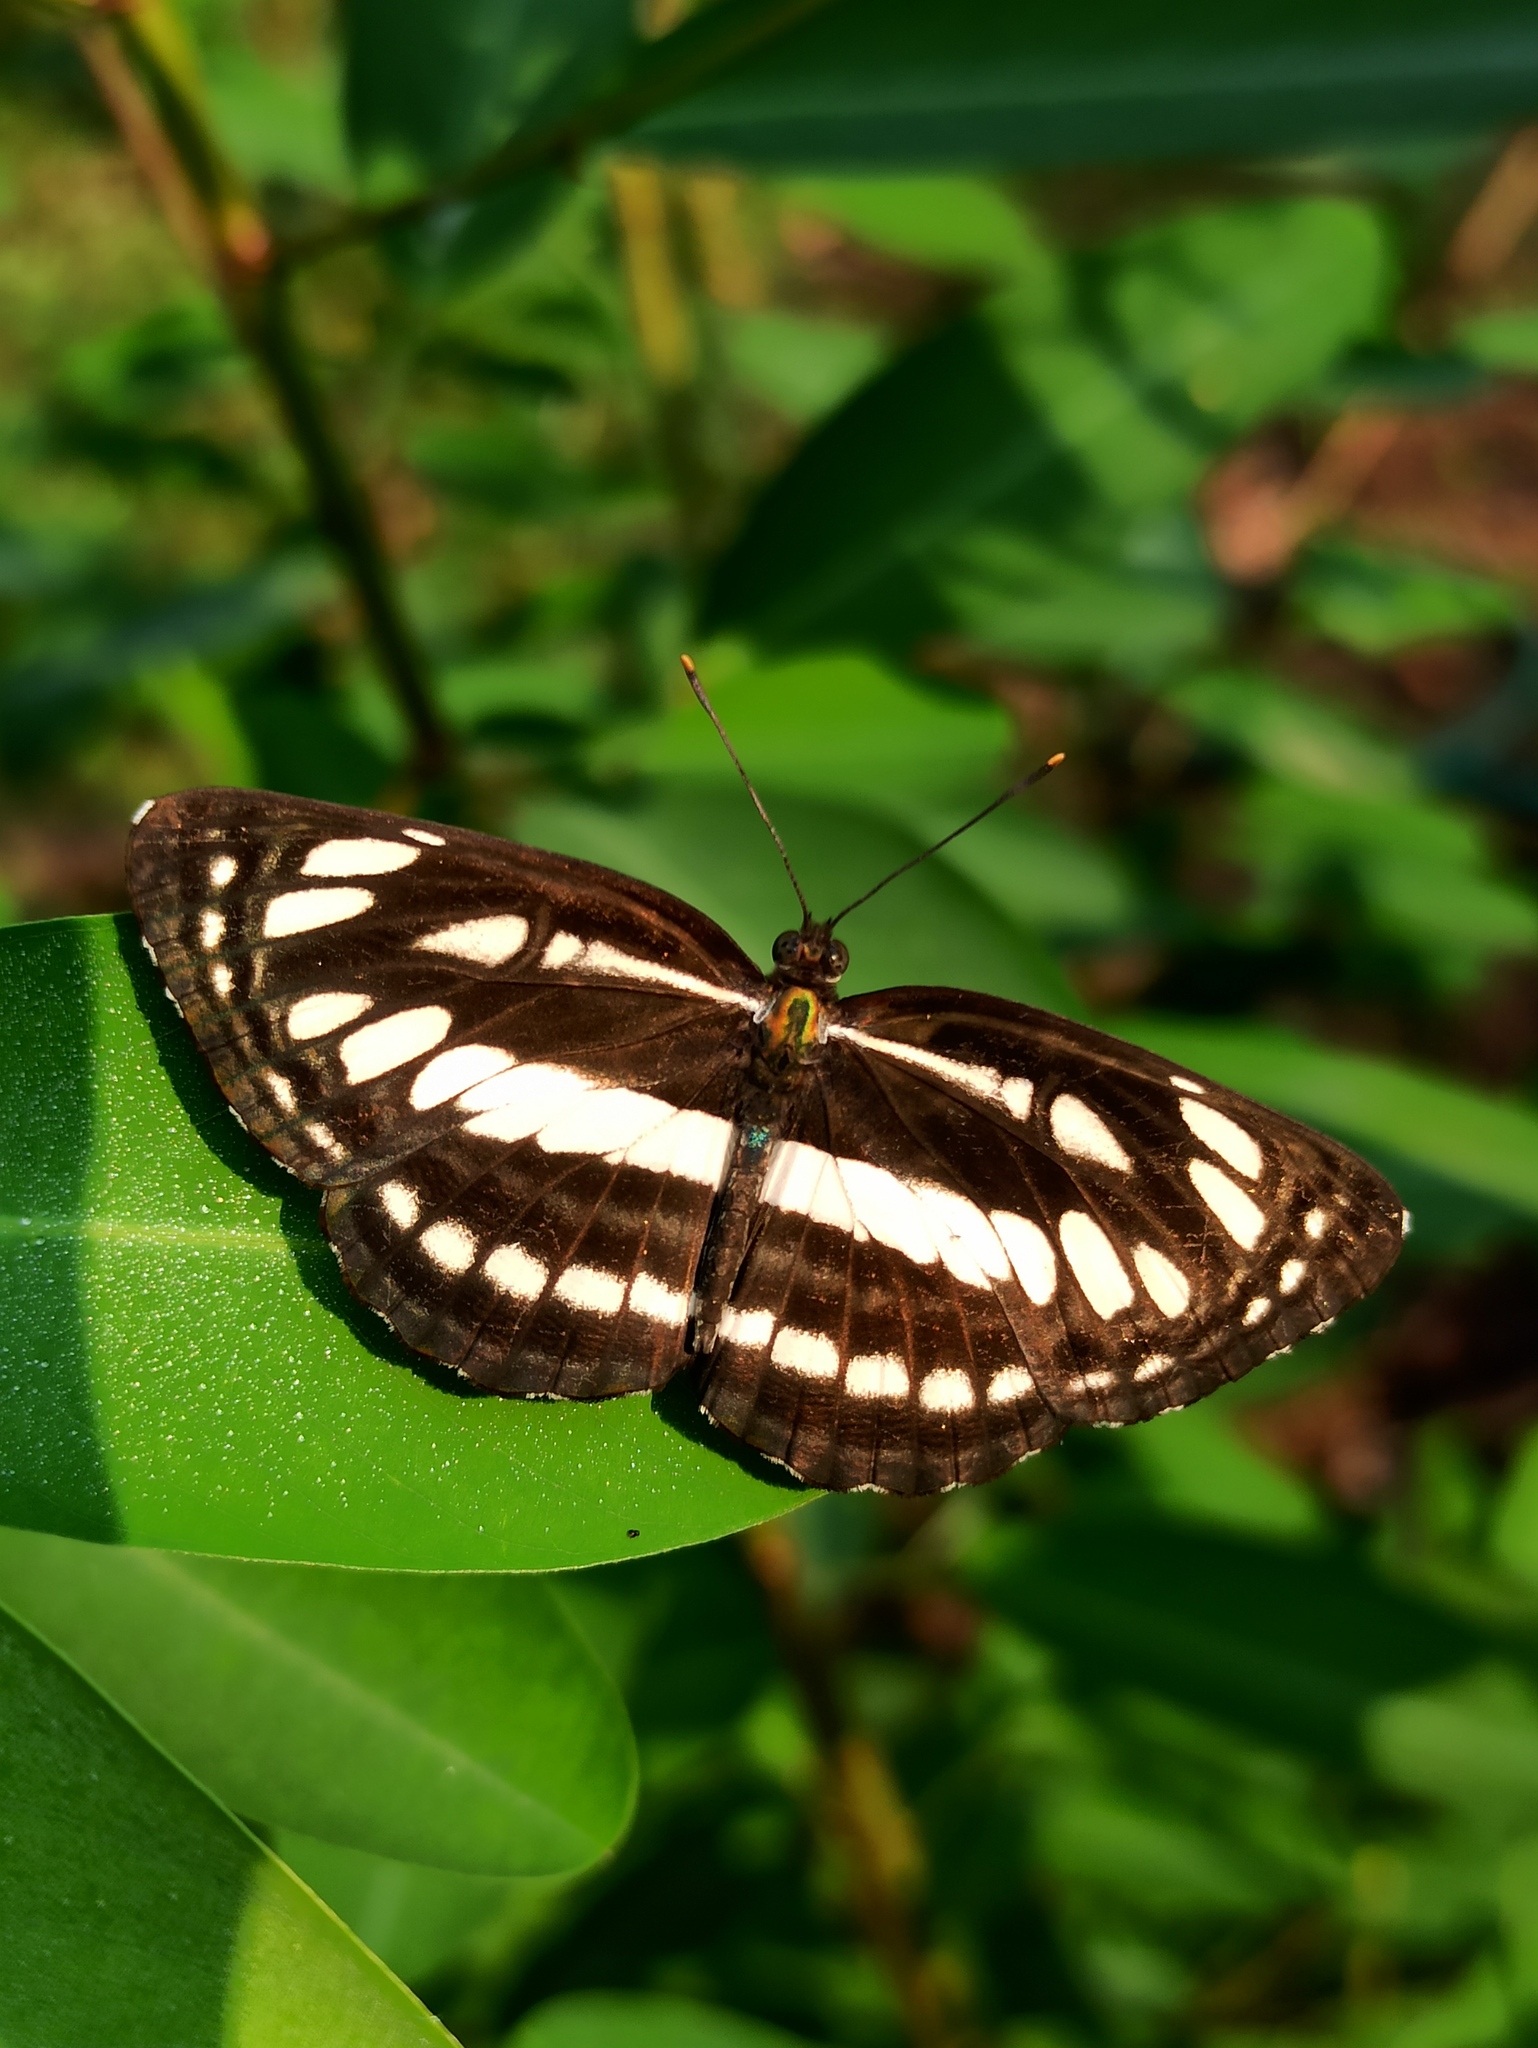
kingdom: Animalia
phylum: Arthropoda
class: Insecta
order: Lepidoptera
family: Nymphalidae
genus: Neptis
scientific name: Neptis hylas
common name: Common sailer
